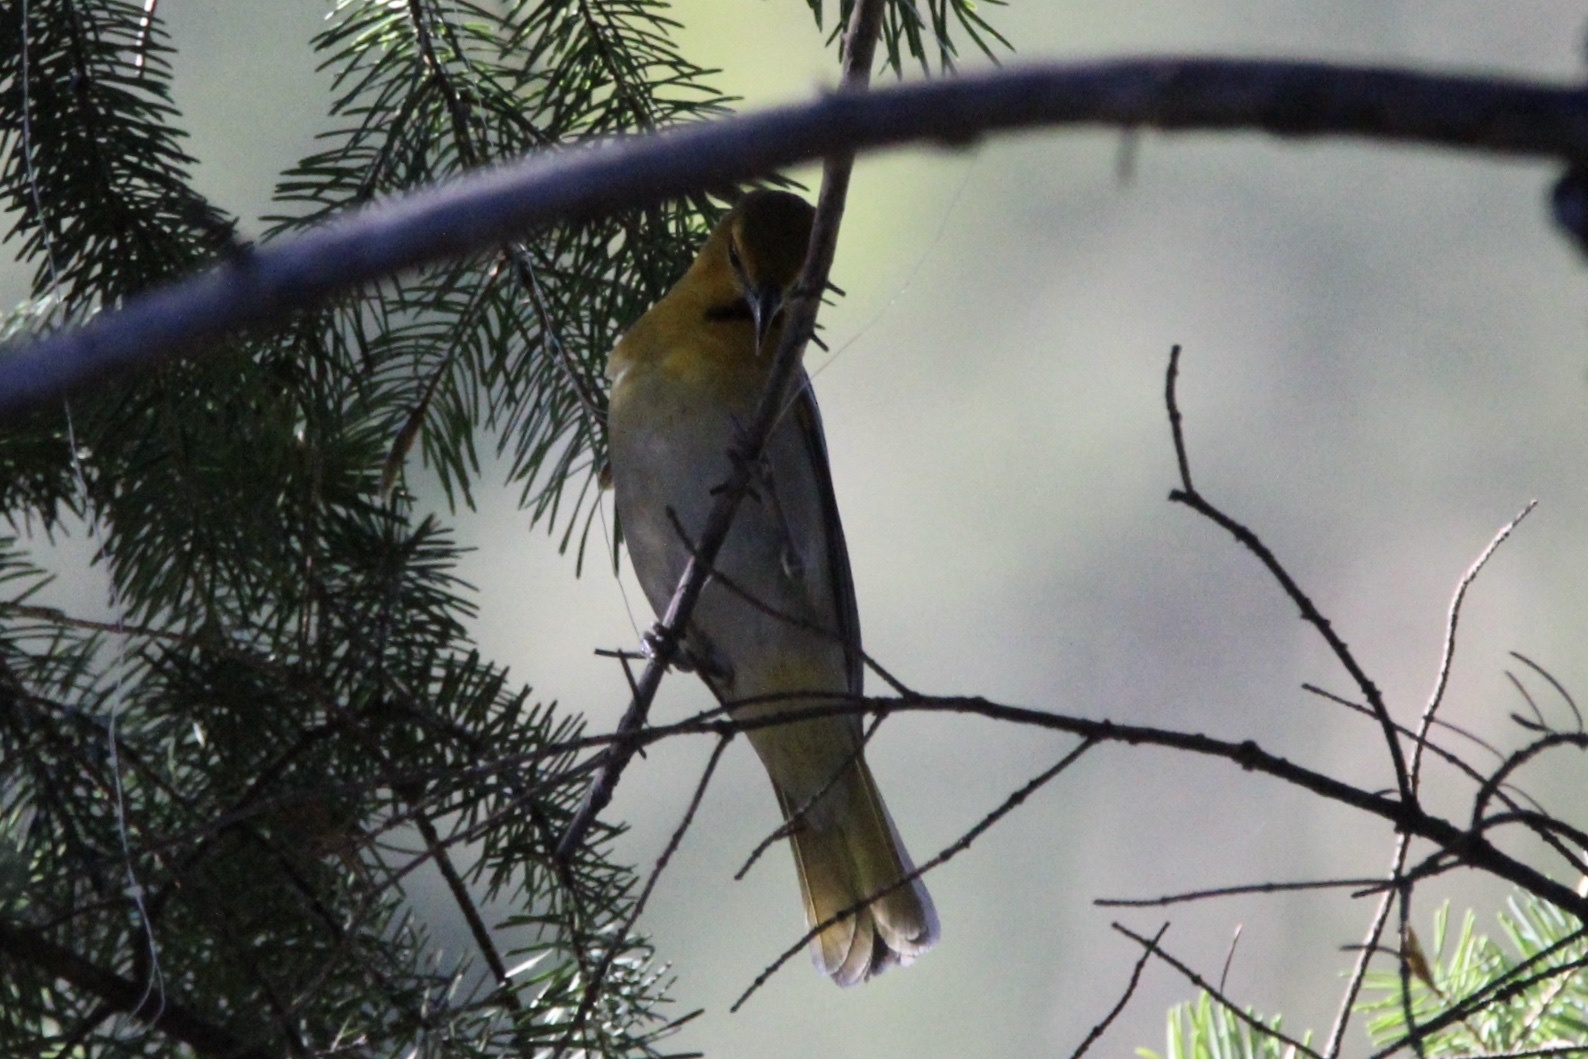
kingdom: Animalia
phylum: Chordata
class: Aves
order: Passeriformes
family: Icteridae
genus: Icterus
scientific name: Icterus bullockii
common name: Bullock's oriole
